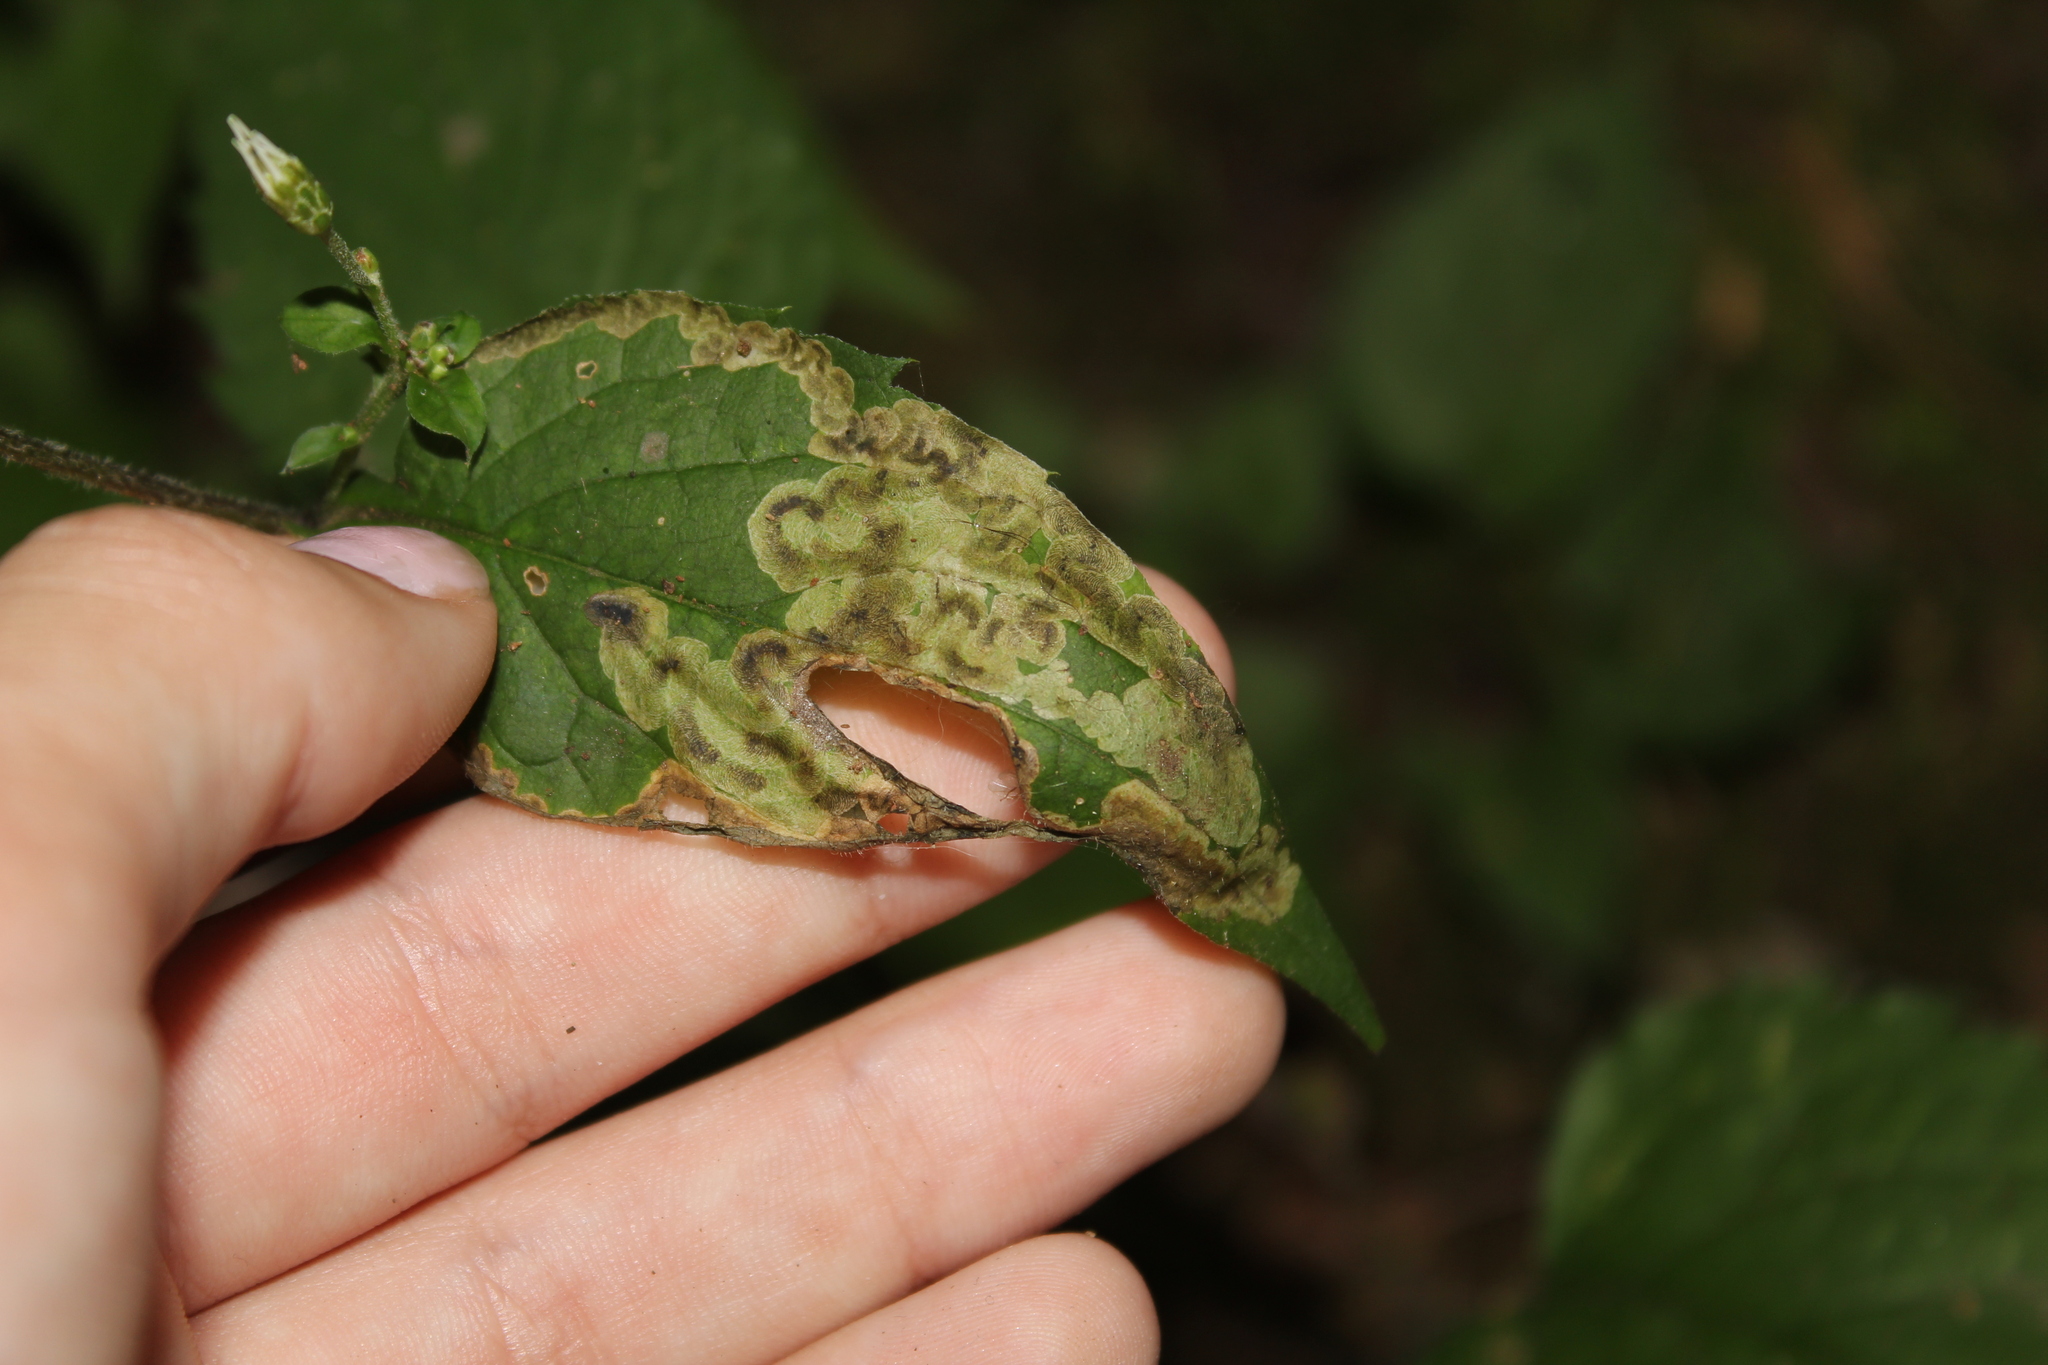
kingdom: Animalia
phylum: Arthropoda
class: Insecta
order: Diptera
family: Agromyzidae
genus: Nemorimyza
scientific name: Nemorimyza posticata
